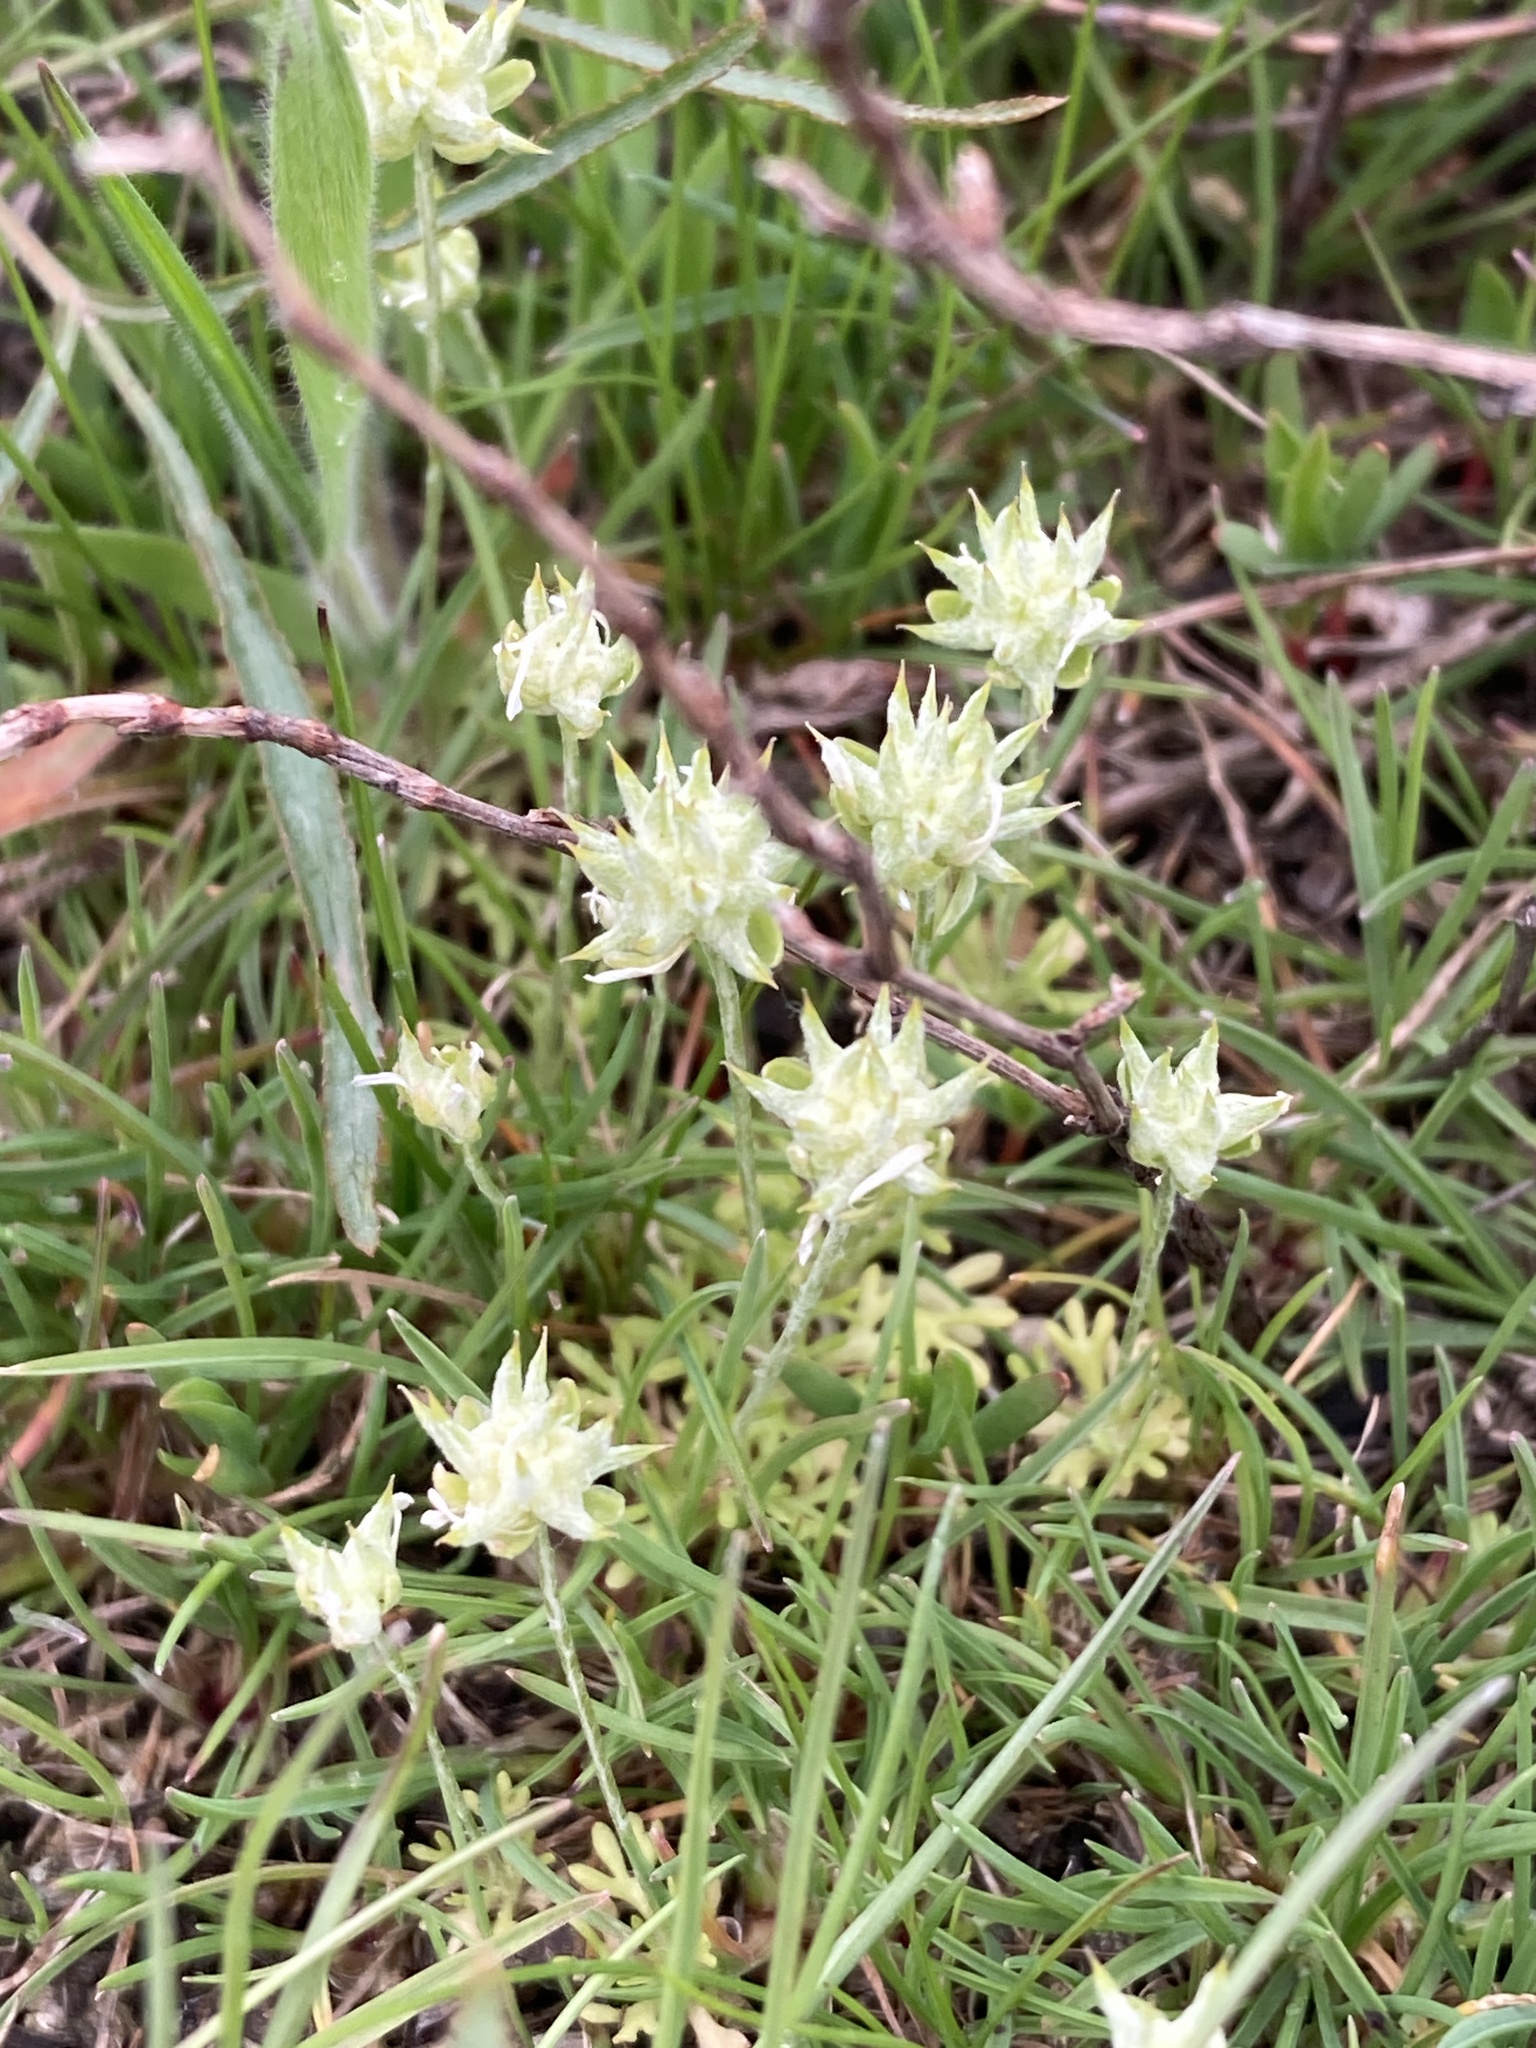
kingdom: Plantae
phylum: Tracheophyta
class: Magnoliopsida
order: Ranunculales
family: Ranunculaceae
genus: Ceratocephala
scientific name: Ceratocephala orthoceras
